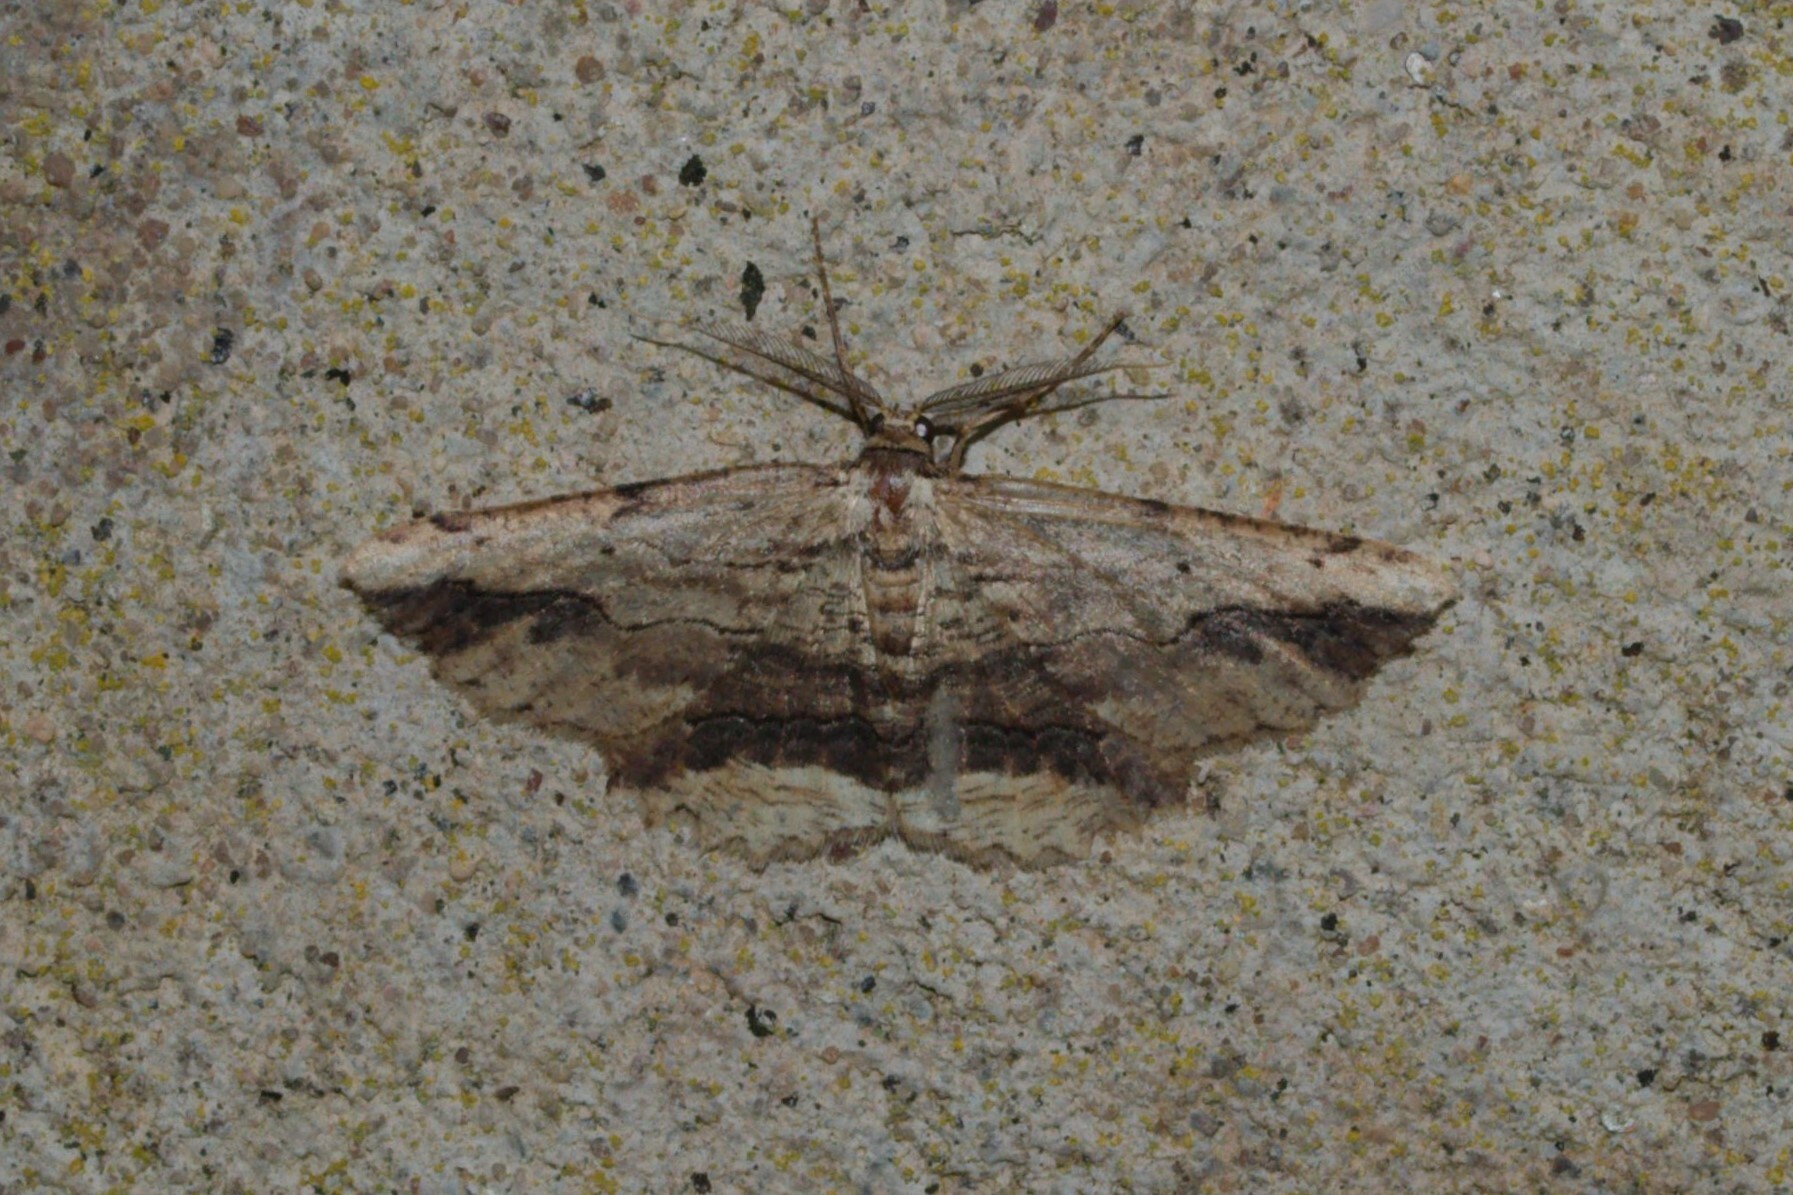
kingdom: Animalia
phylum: Arthropoda
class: Insecta
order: Lepidoptera
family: Geometridae
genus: Menophra
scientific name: Menophra abruptaria
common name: Waved umber
